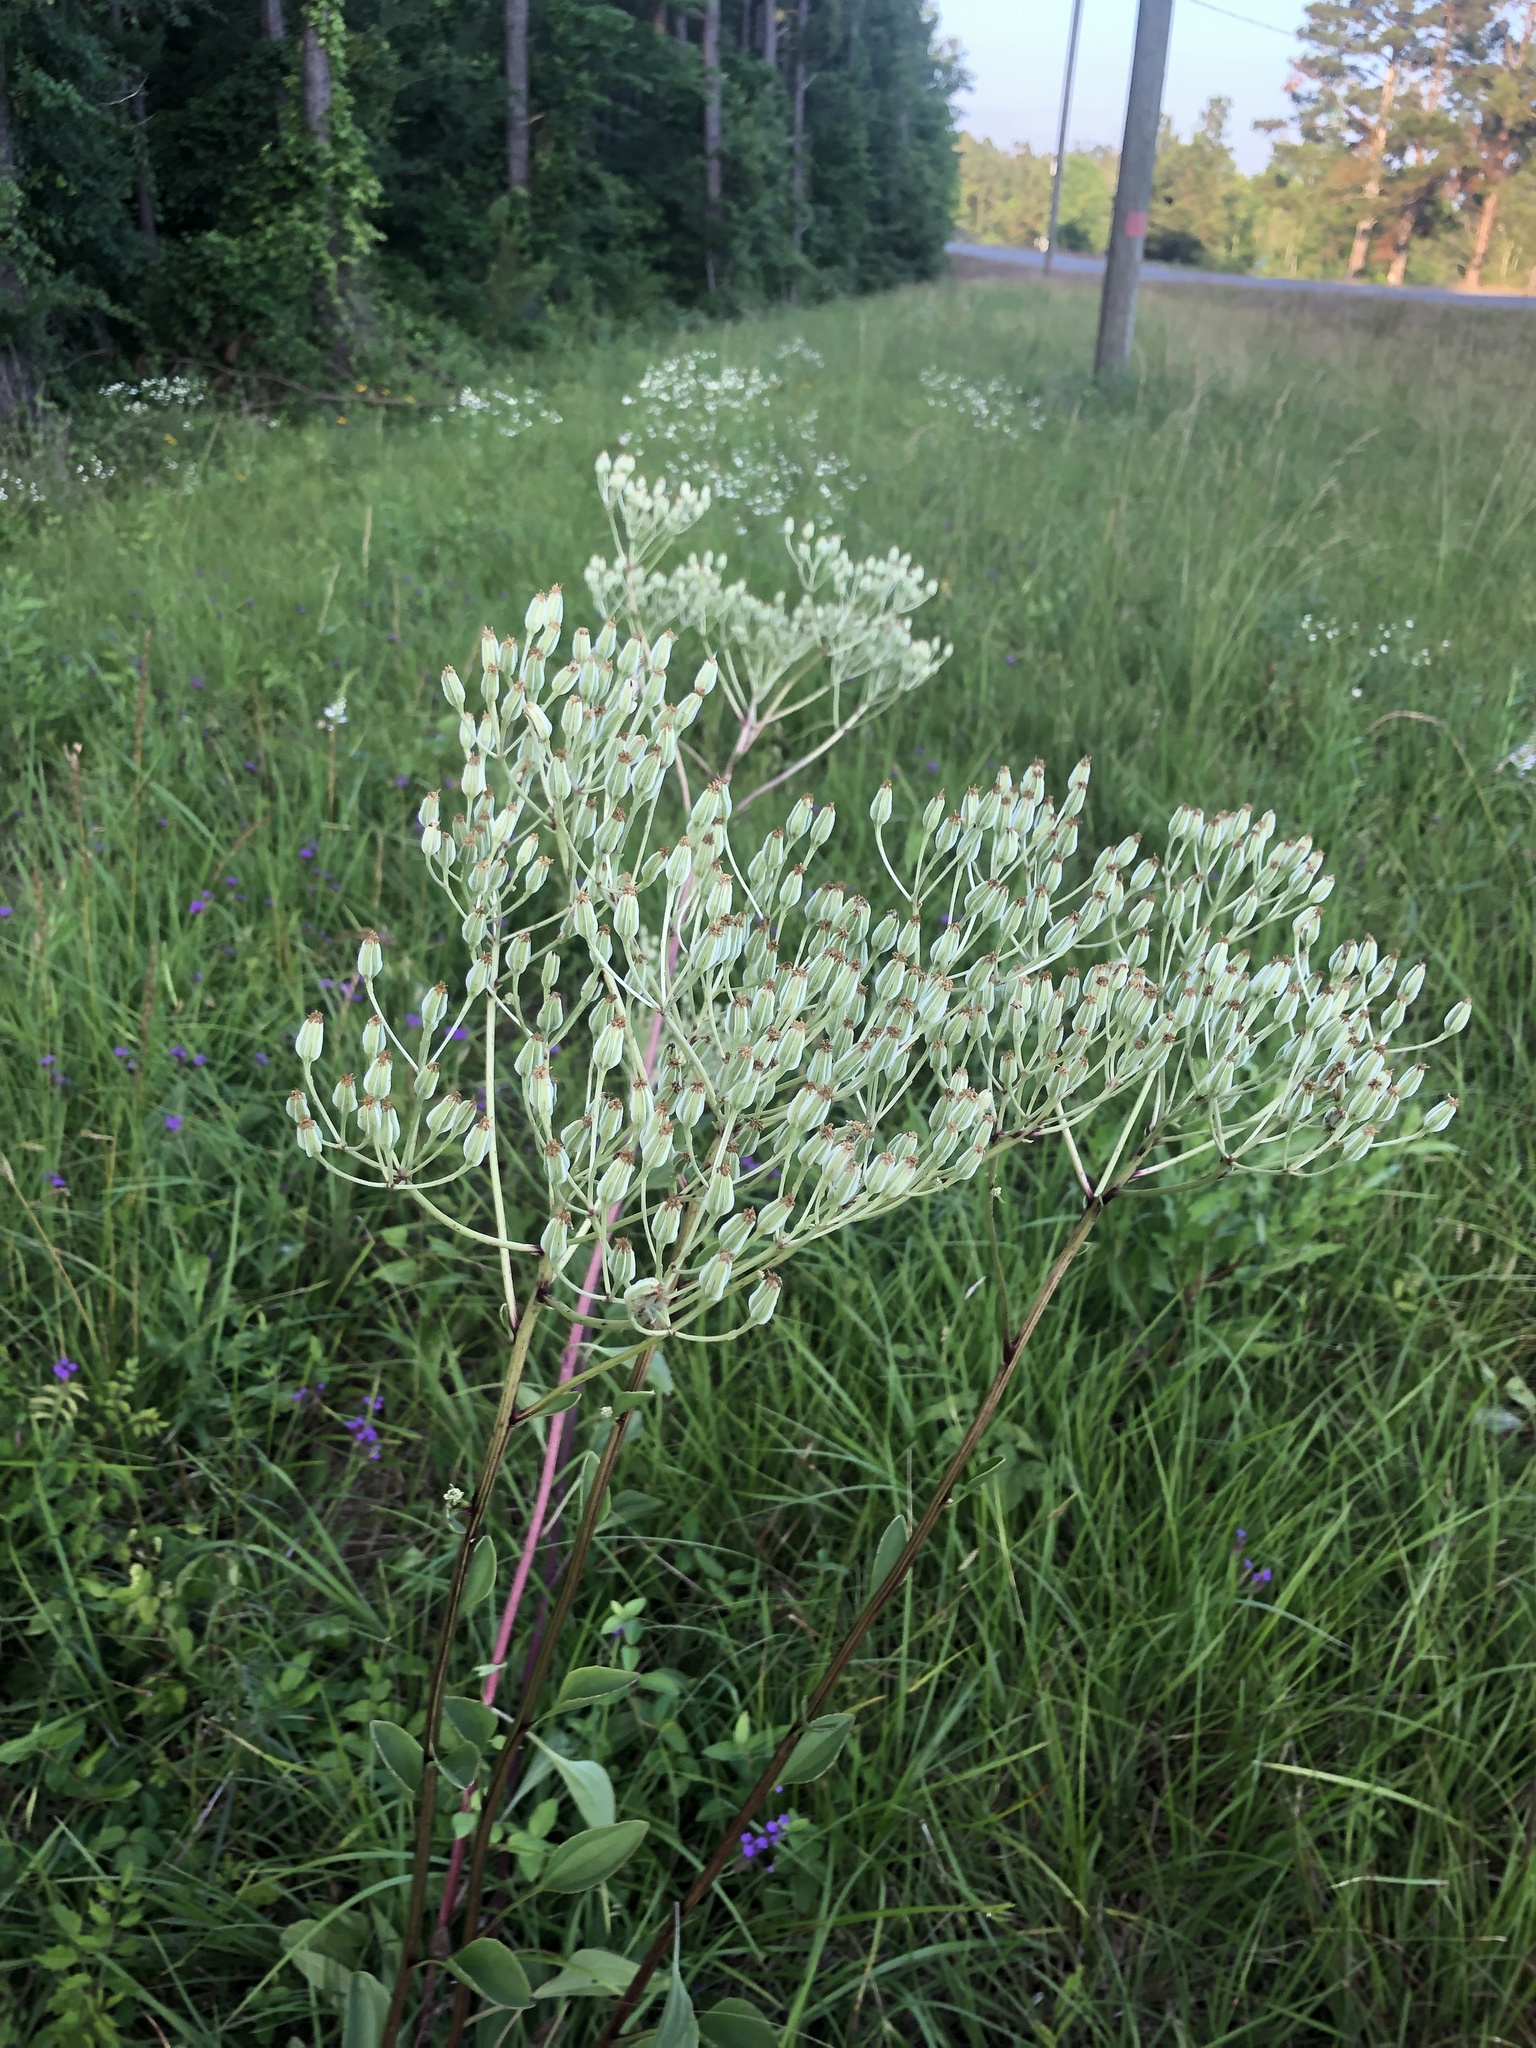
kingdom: Plantae
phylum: Tracheophyta
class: Magnoliopsida
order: Asterales
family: Asteraceae
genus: Arnoglossum
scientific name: Arnoglossum plantagineum
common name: Groove-stemmed indian-plantain
